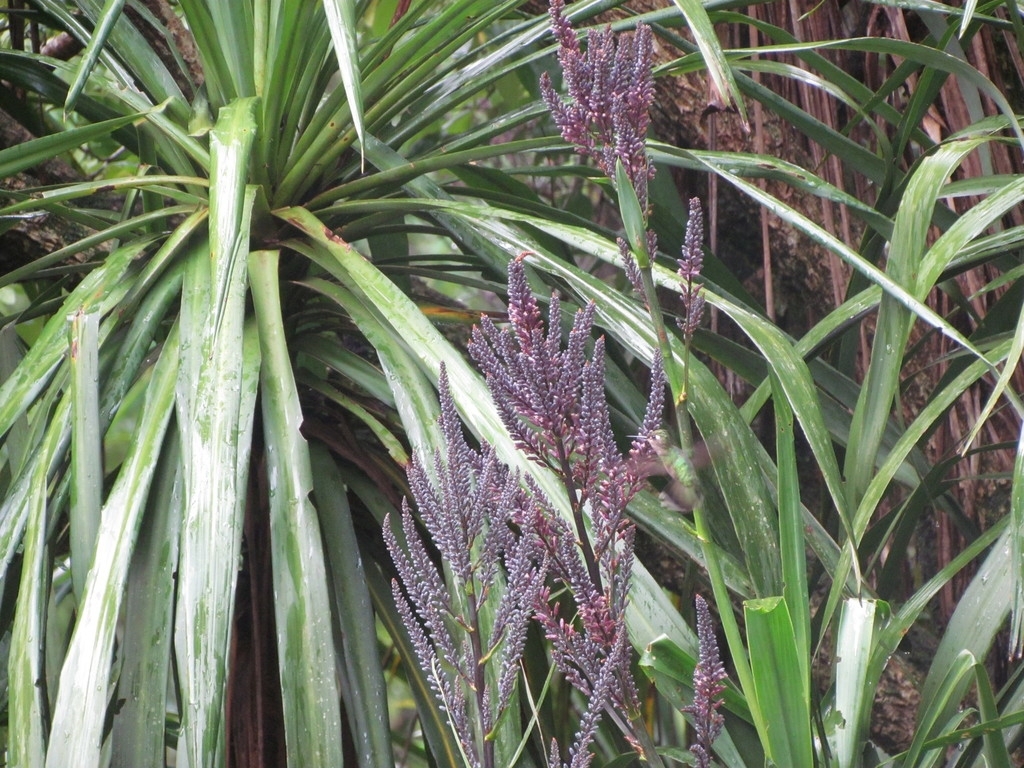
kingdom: Plantae
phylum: Tracheophyta
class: Liliopsida
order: Asparagales
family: Asparagaceae
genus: Cordyline
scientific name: Cordyline sellowiana
